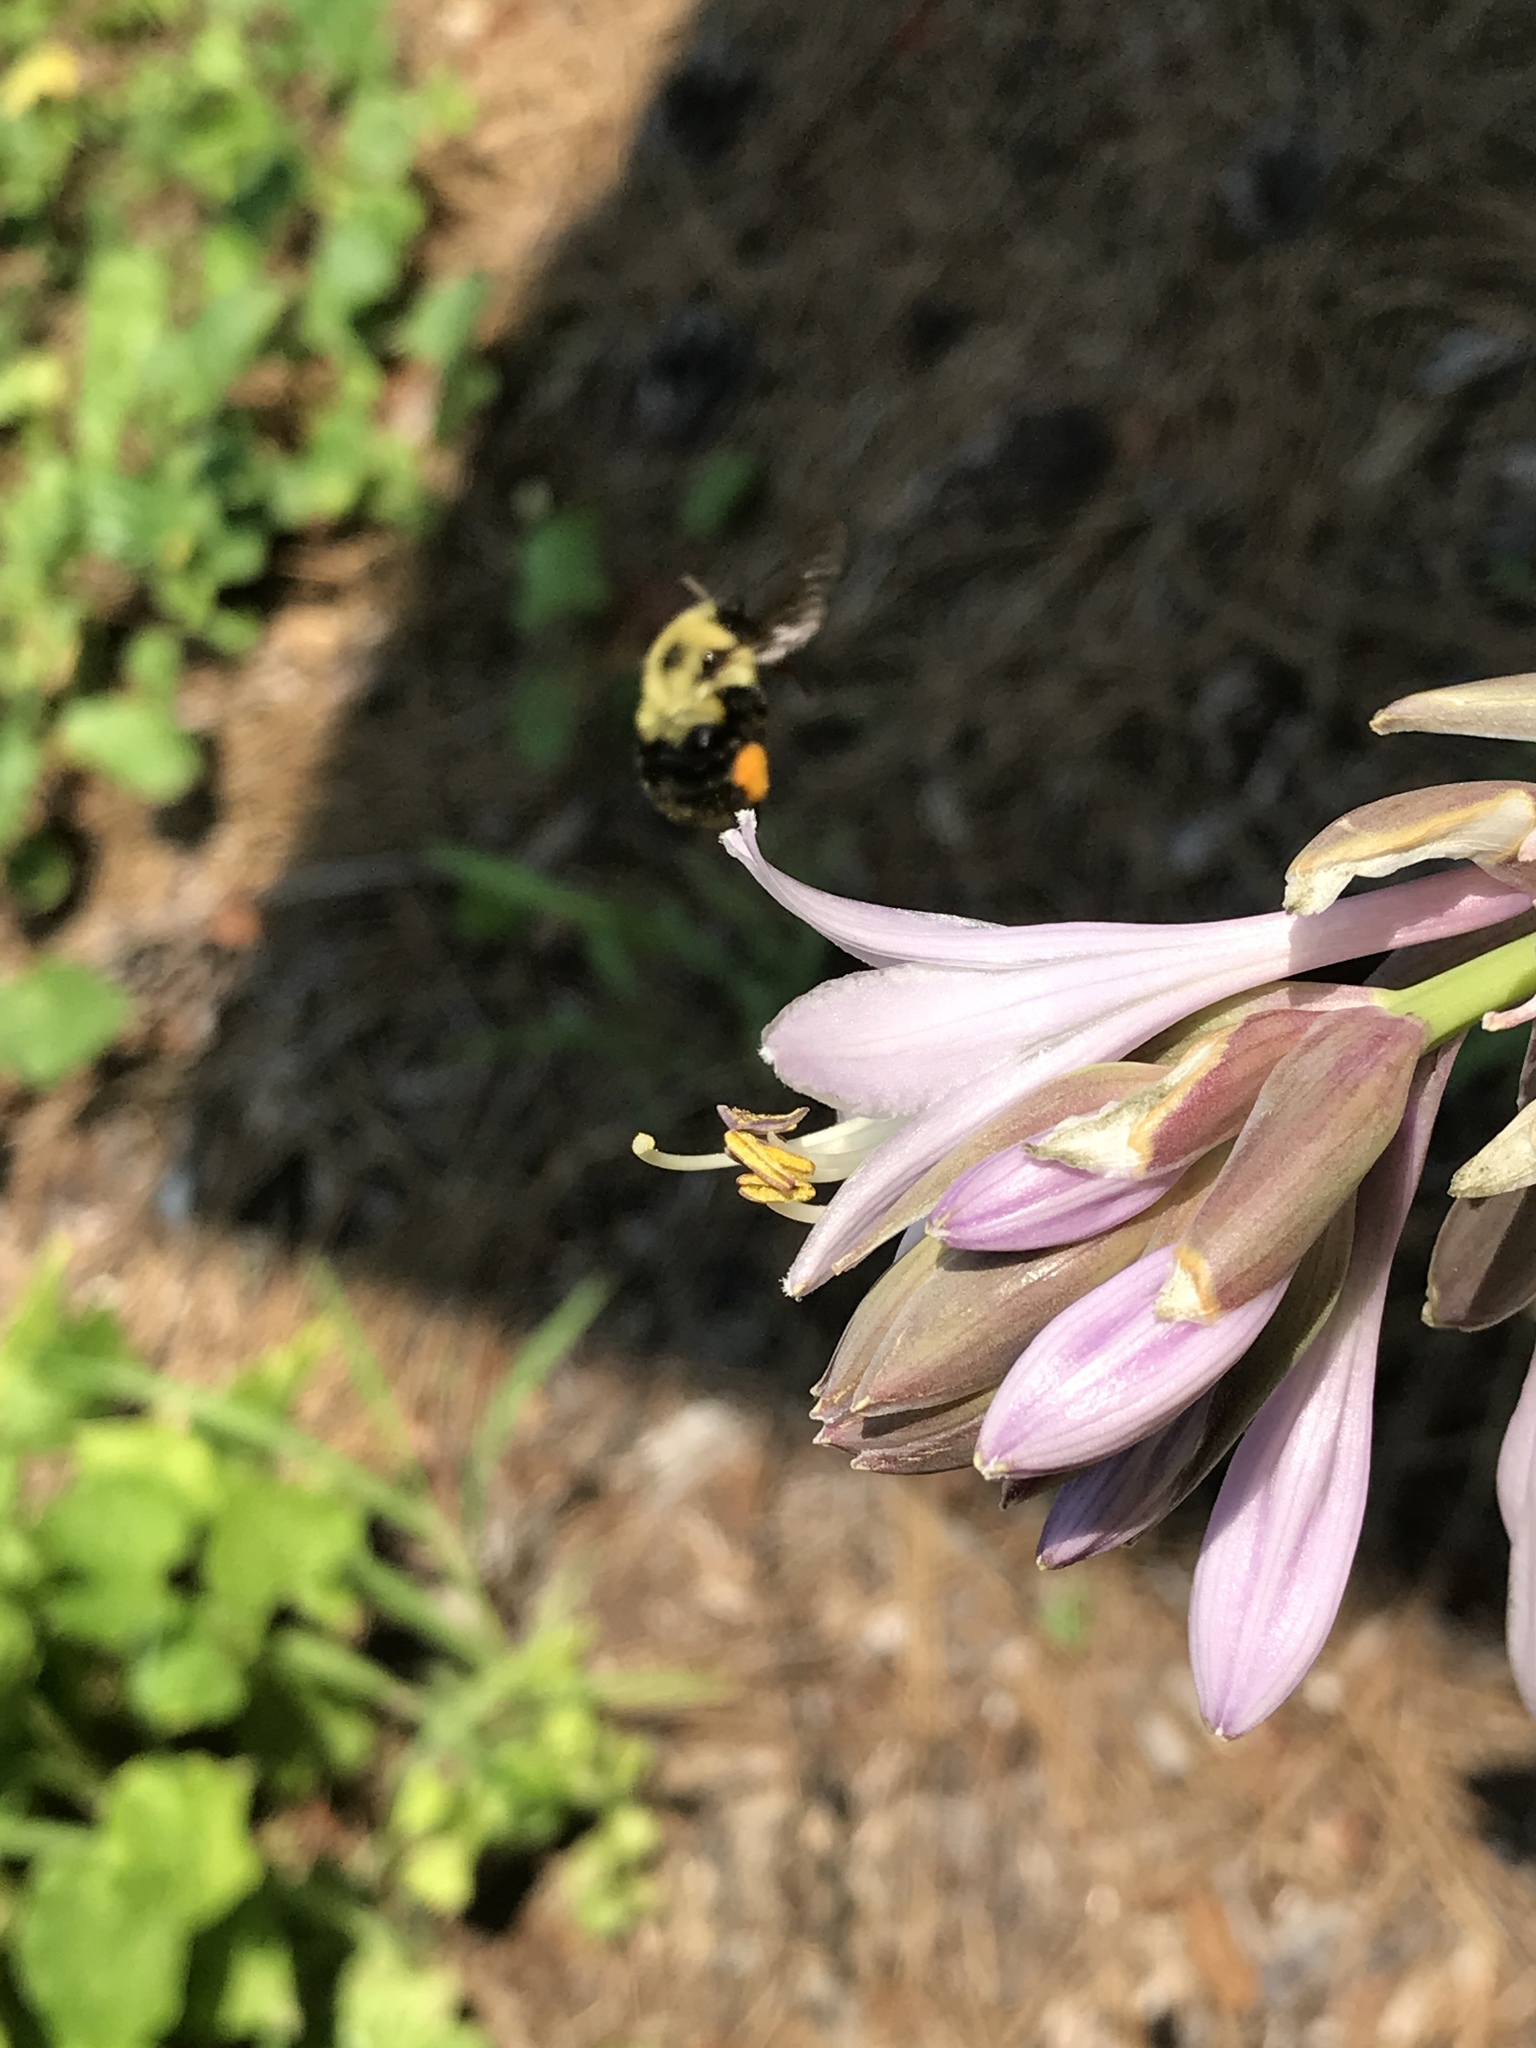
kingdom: Animalia
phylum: Arthropoda
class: Insecta
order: Hymenoptera
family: Apidae
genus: Bombus
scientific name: Bombus bimaculatus
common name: Two-spotted bumble bee
